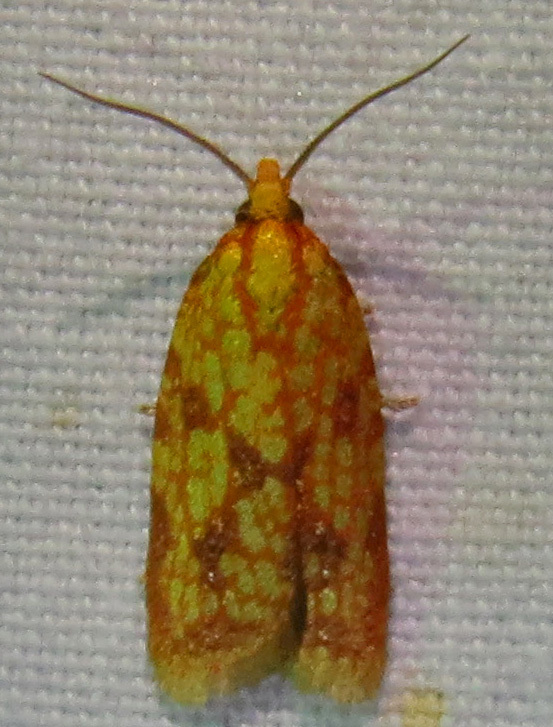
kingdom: Animalia
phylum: Arthropoda
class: Insecta
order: Lepidoptera
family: Tortricidae
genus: Sparganothis
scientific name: Sparganothis sulfureana
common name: Sparganothis fruitworm moth
